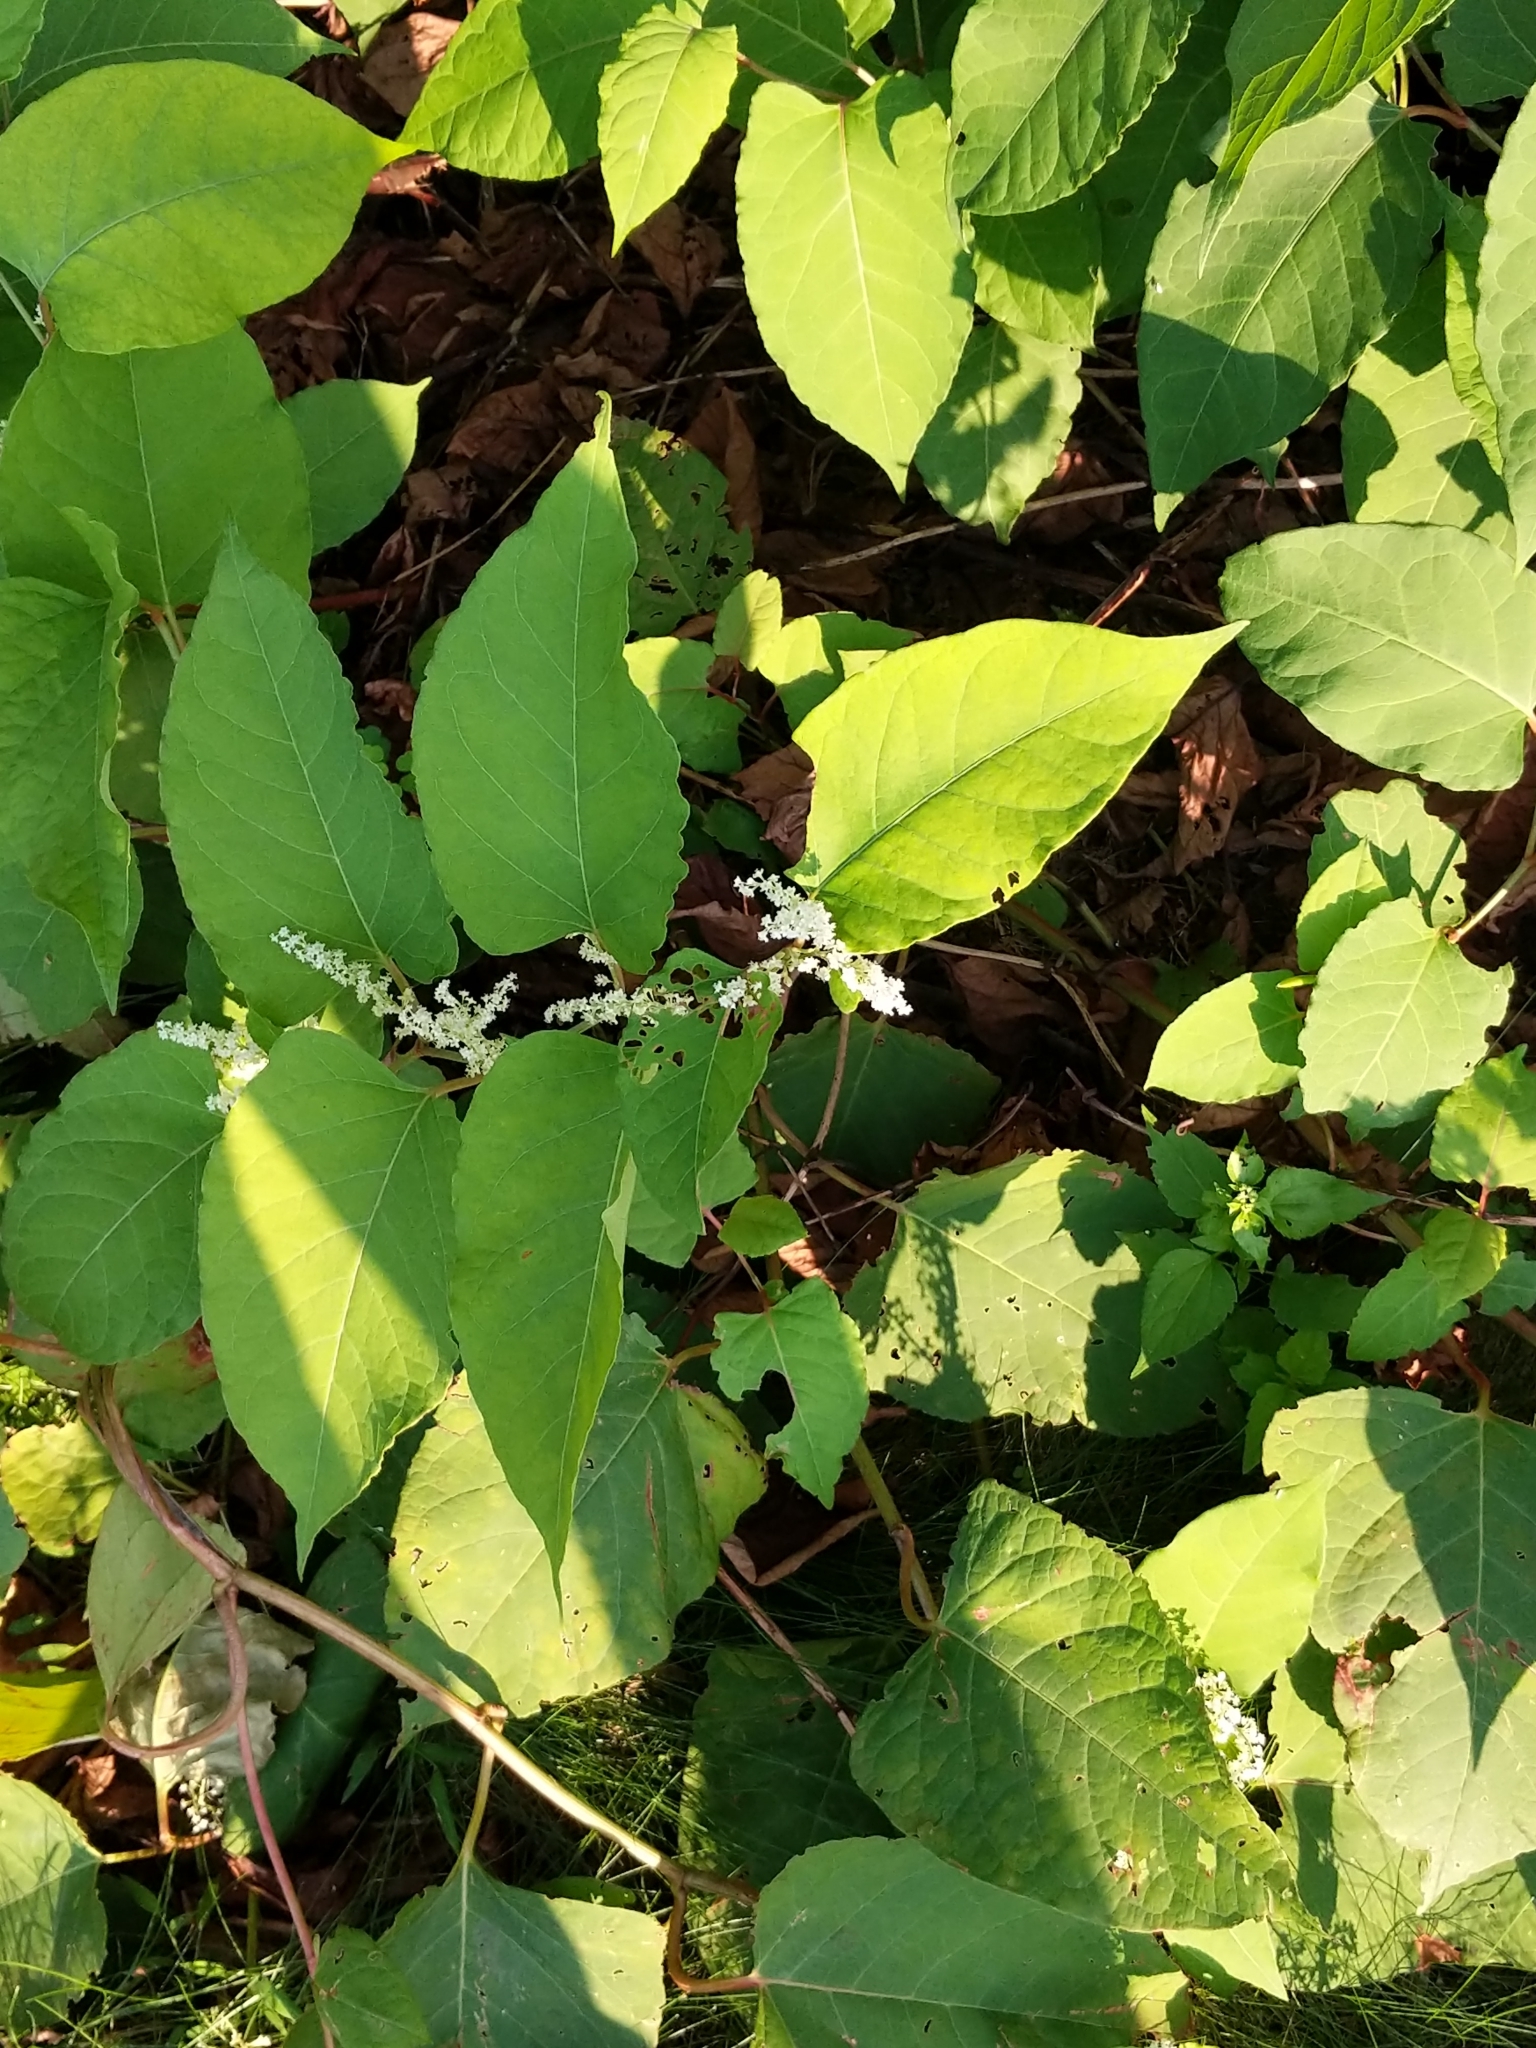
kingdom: Plantae
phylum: Tracheophyta
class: Magnoliopsida
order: Caryophyllales
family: Polygonaceae
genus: Reynoutria
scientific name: Reynoutria japonica
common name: Japanese knotweed
